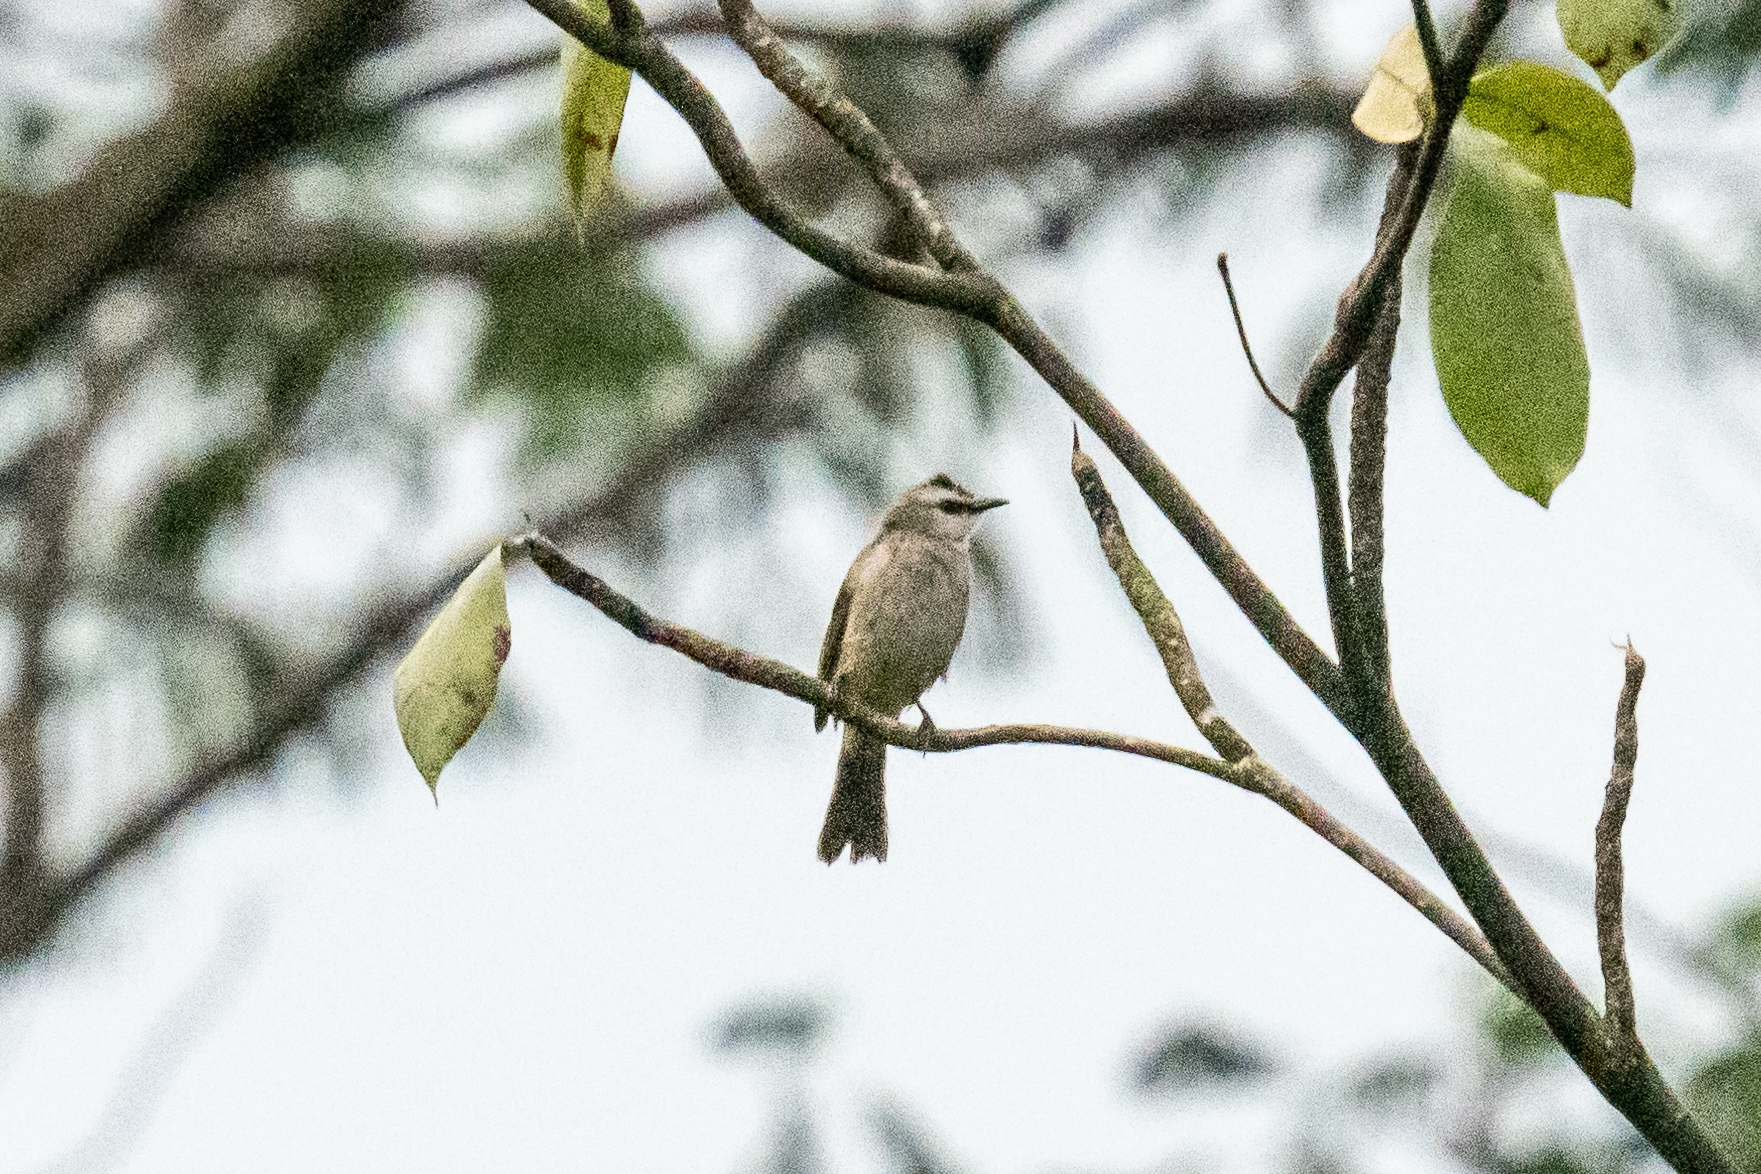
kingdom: Animalia
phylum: Chordata
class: Aves
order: Passeriformes
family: Pycnonotidae
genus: Pycnonotus
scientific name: Pycnonotus goiavier
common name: Yellow-vented bulbul
